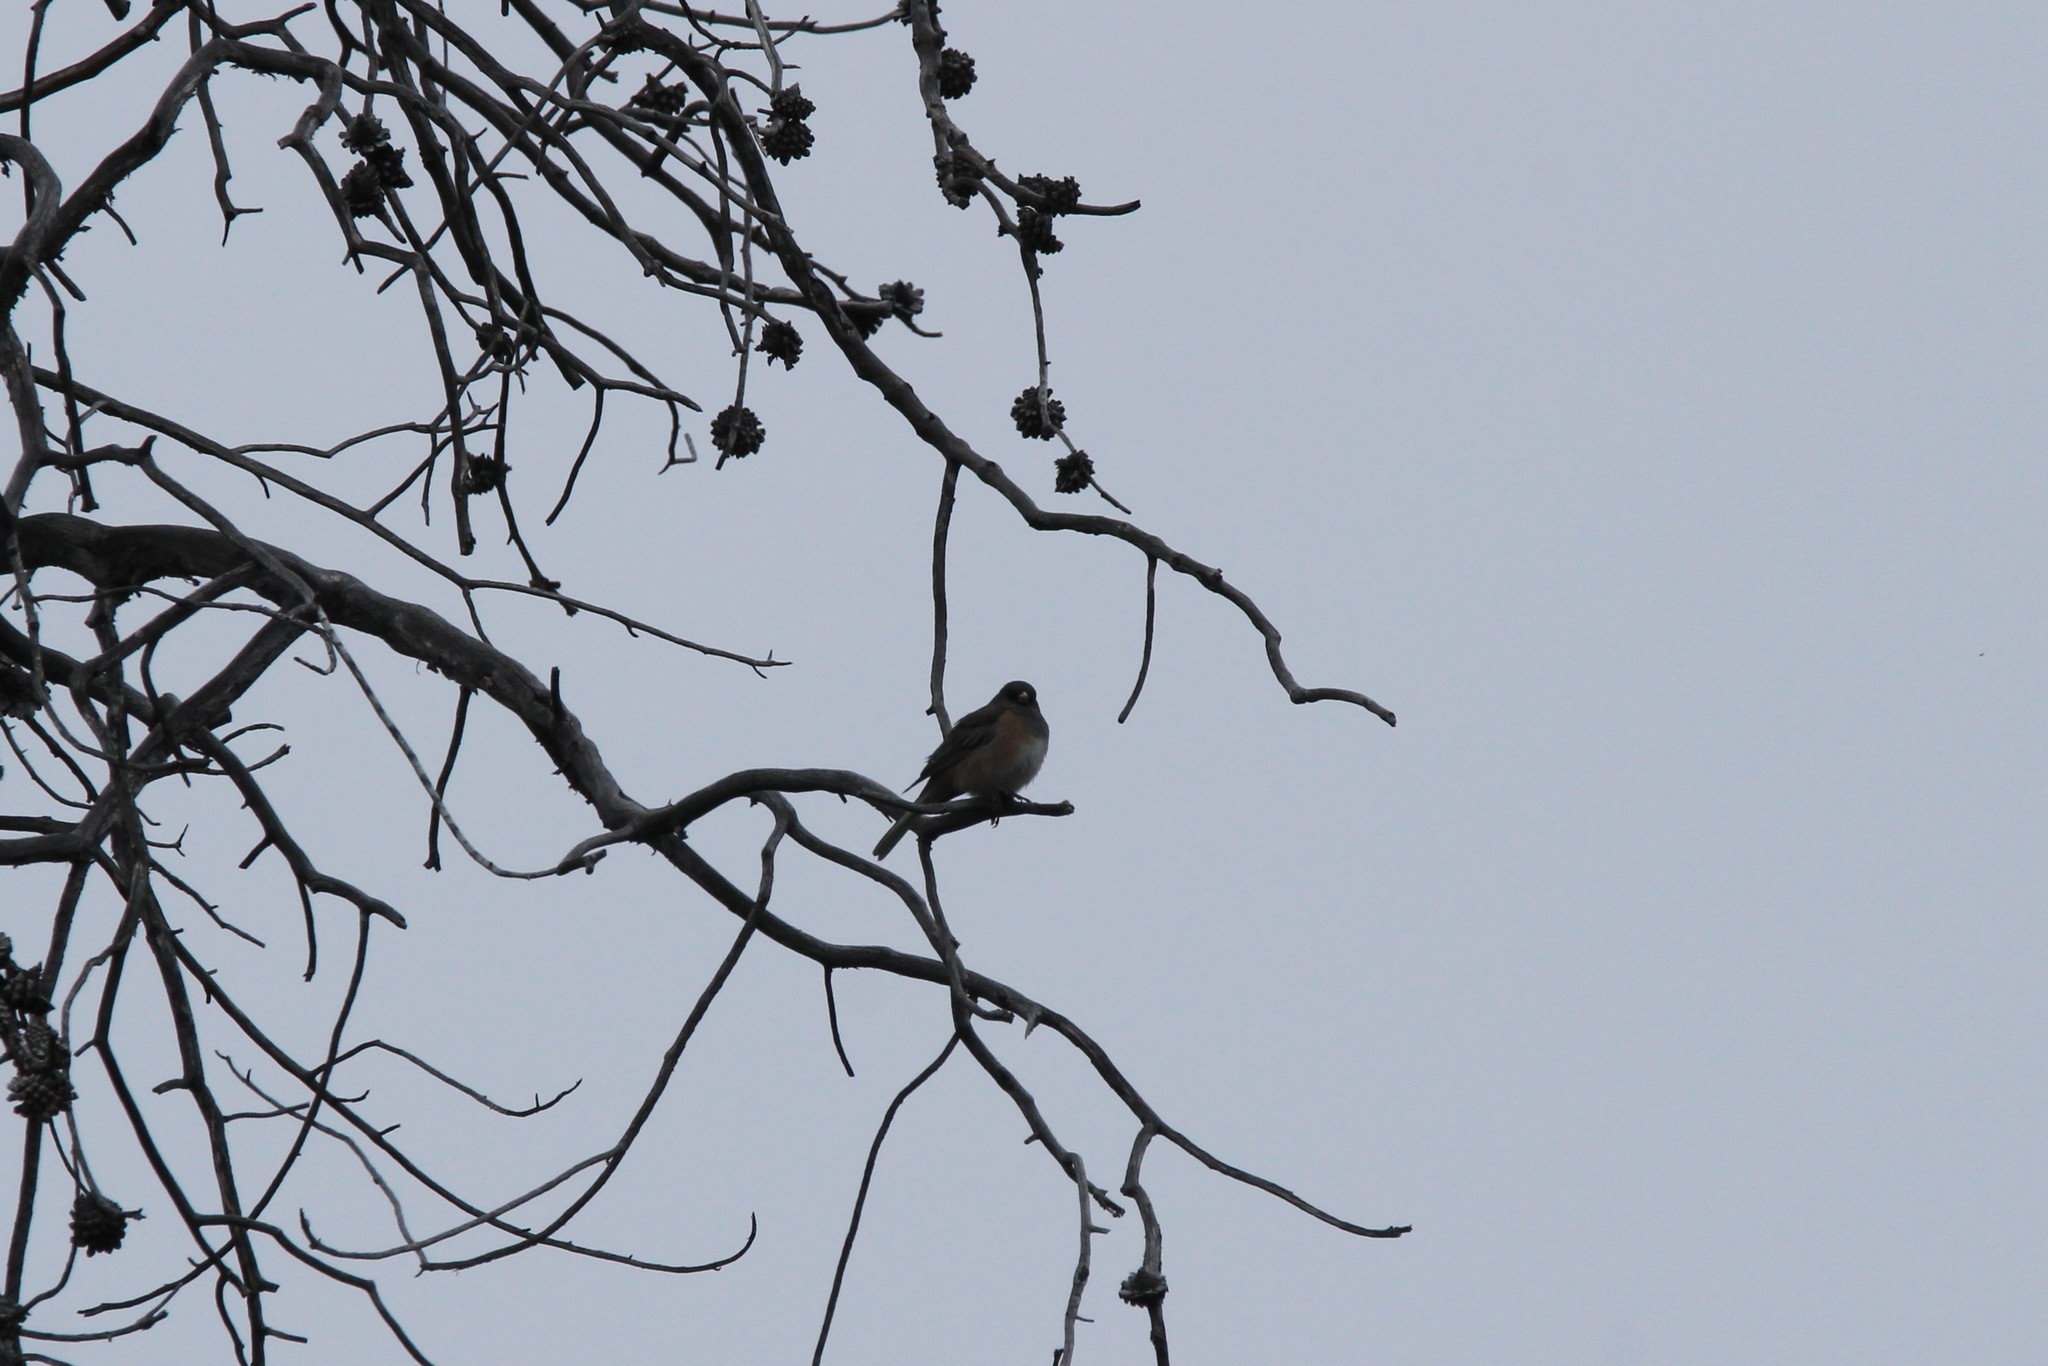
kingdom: Animalia
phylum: Chordata
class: Aves
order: Passeriformes
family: Passerellidae
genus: Junco
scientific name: Junco hyemalis
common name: Dark-eyed junco
